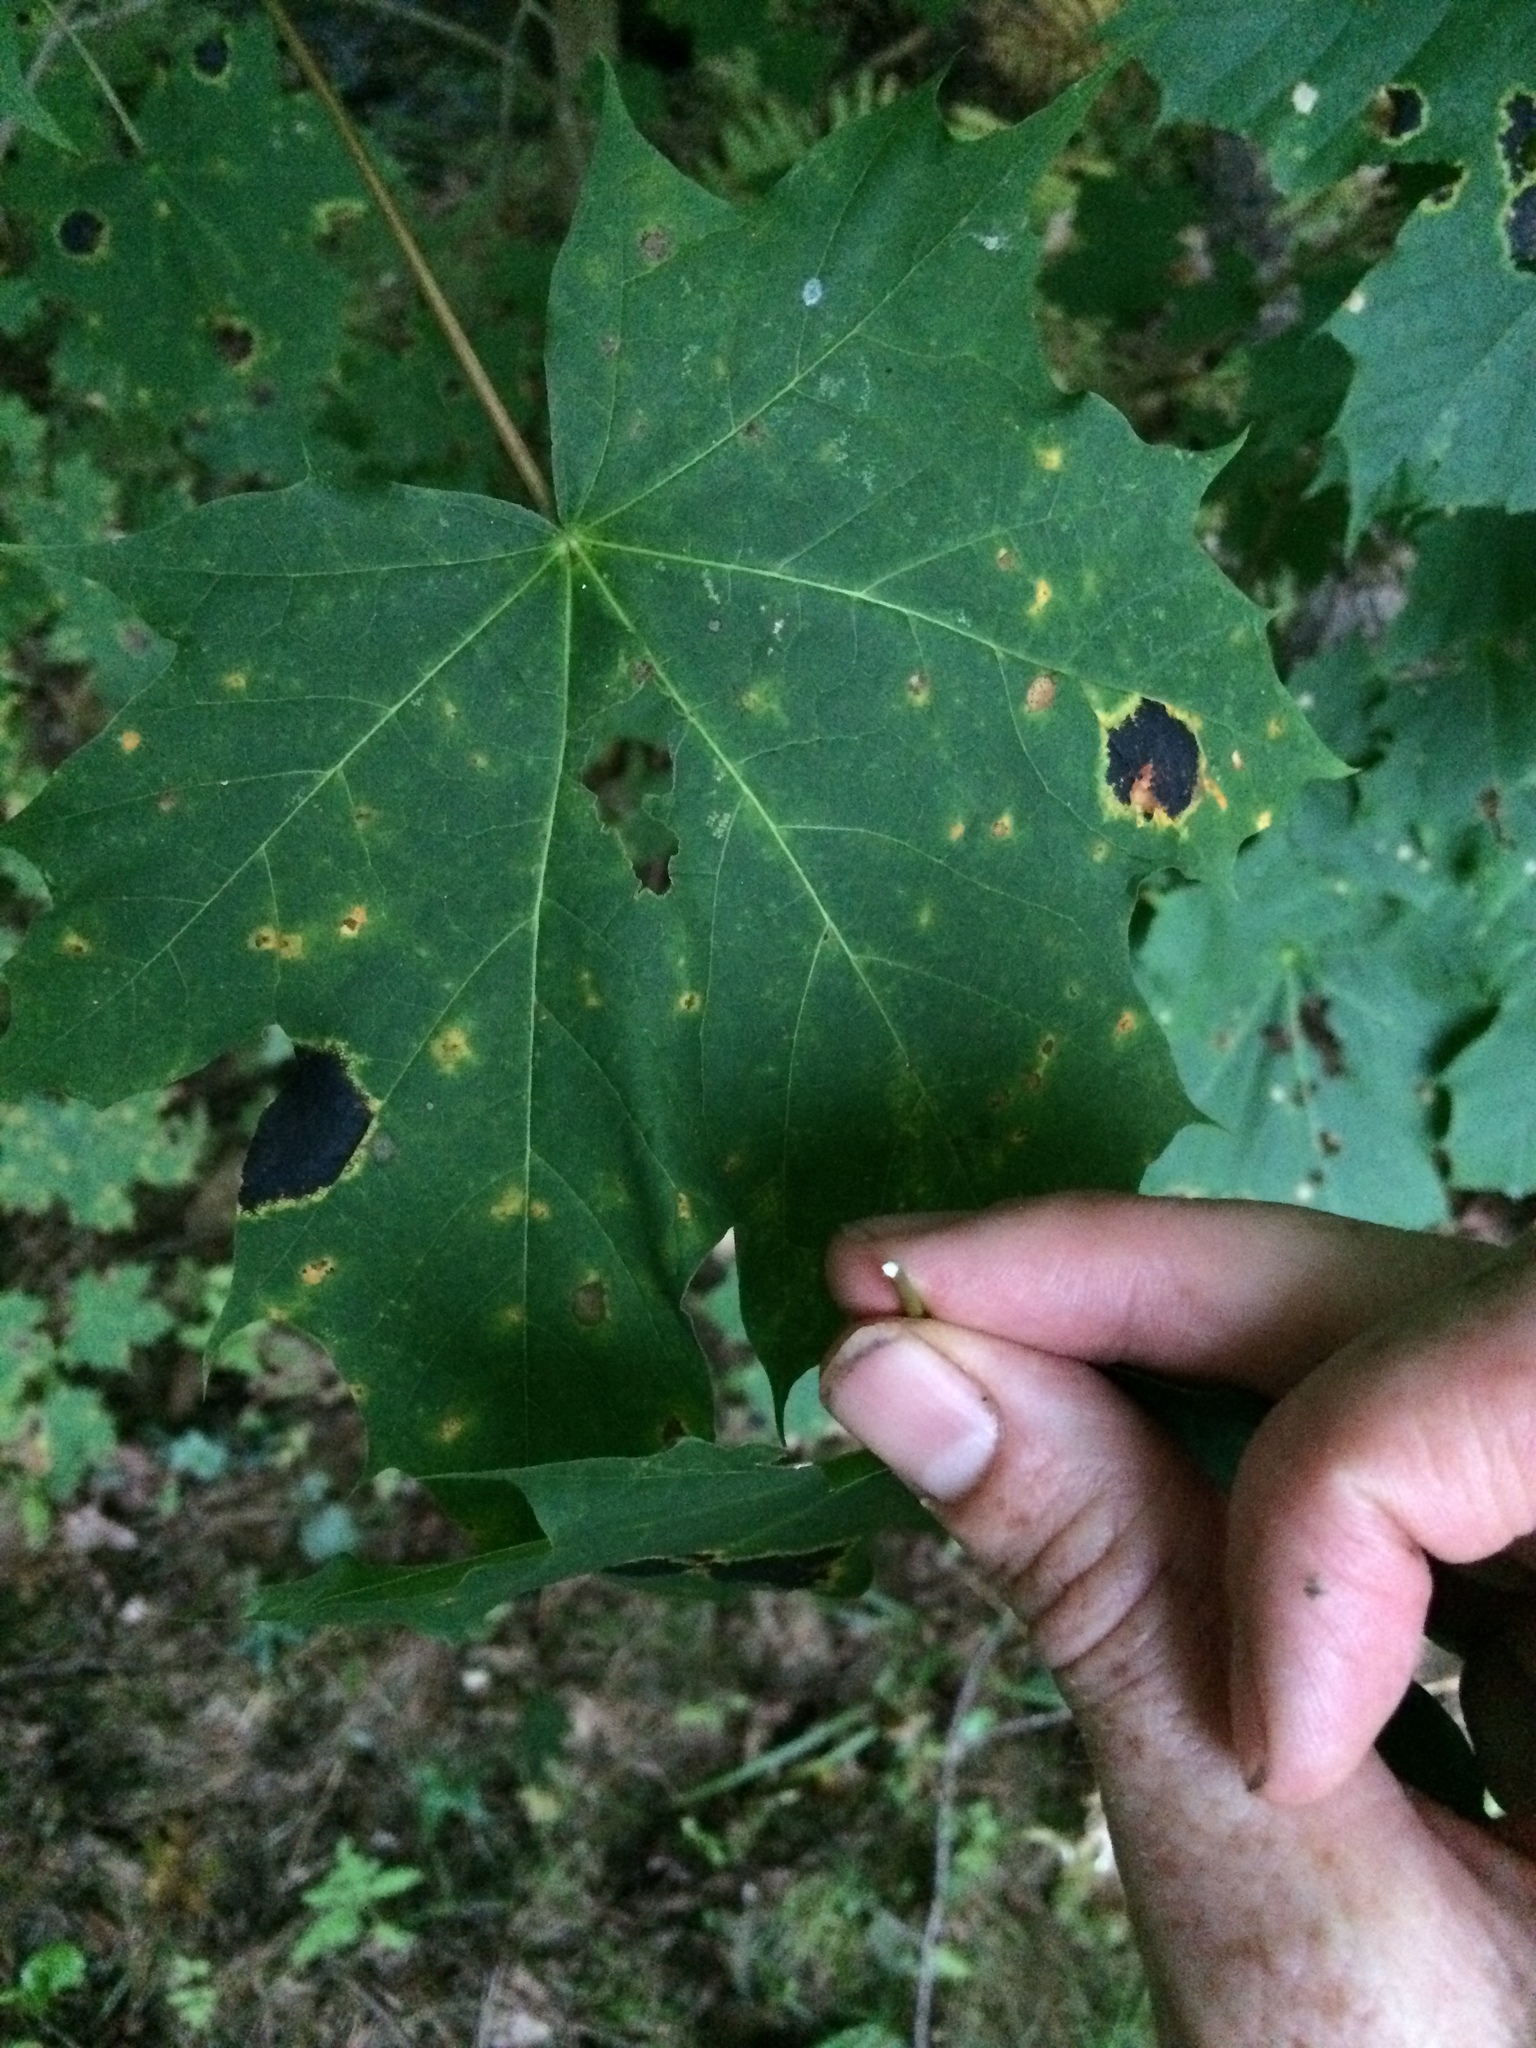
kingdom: Fungi
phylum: Ascomycota
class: Leotiomycetes
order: Rhytismatales
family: Rhytismataceae
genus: Rhytisma
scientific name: Rhytisma acerinum
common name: European tar spot
